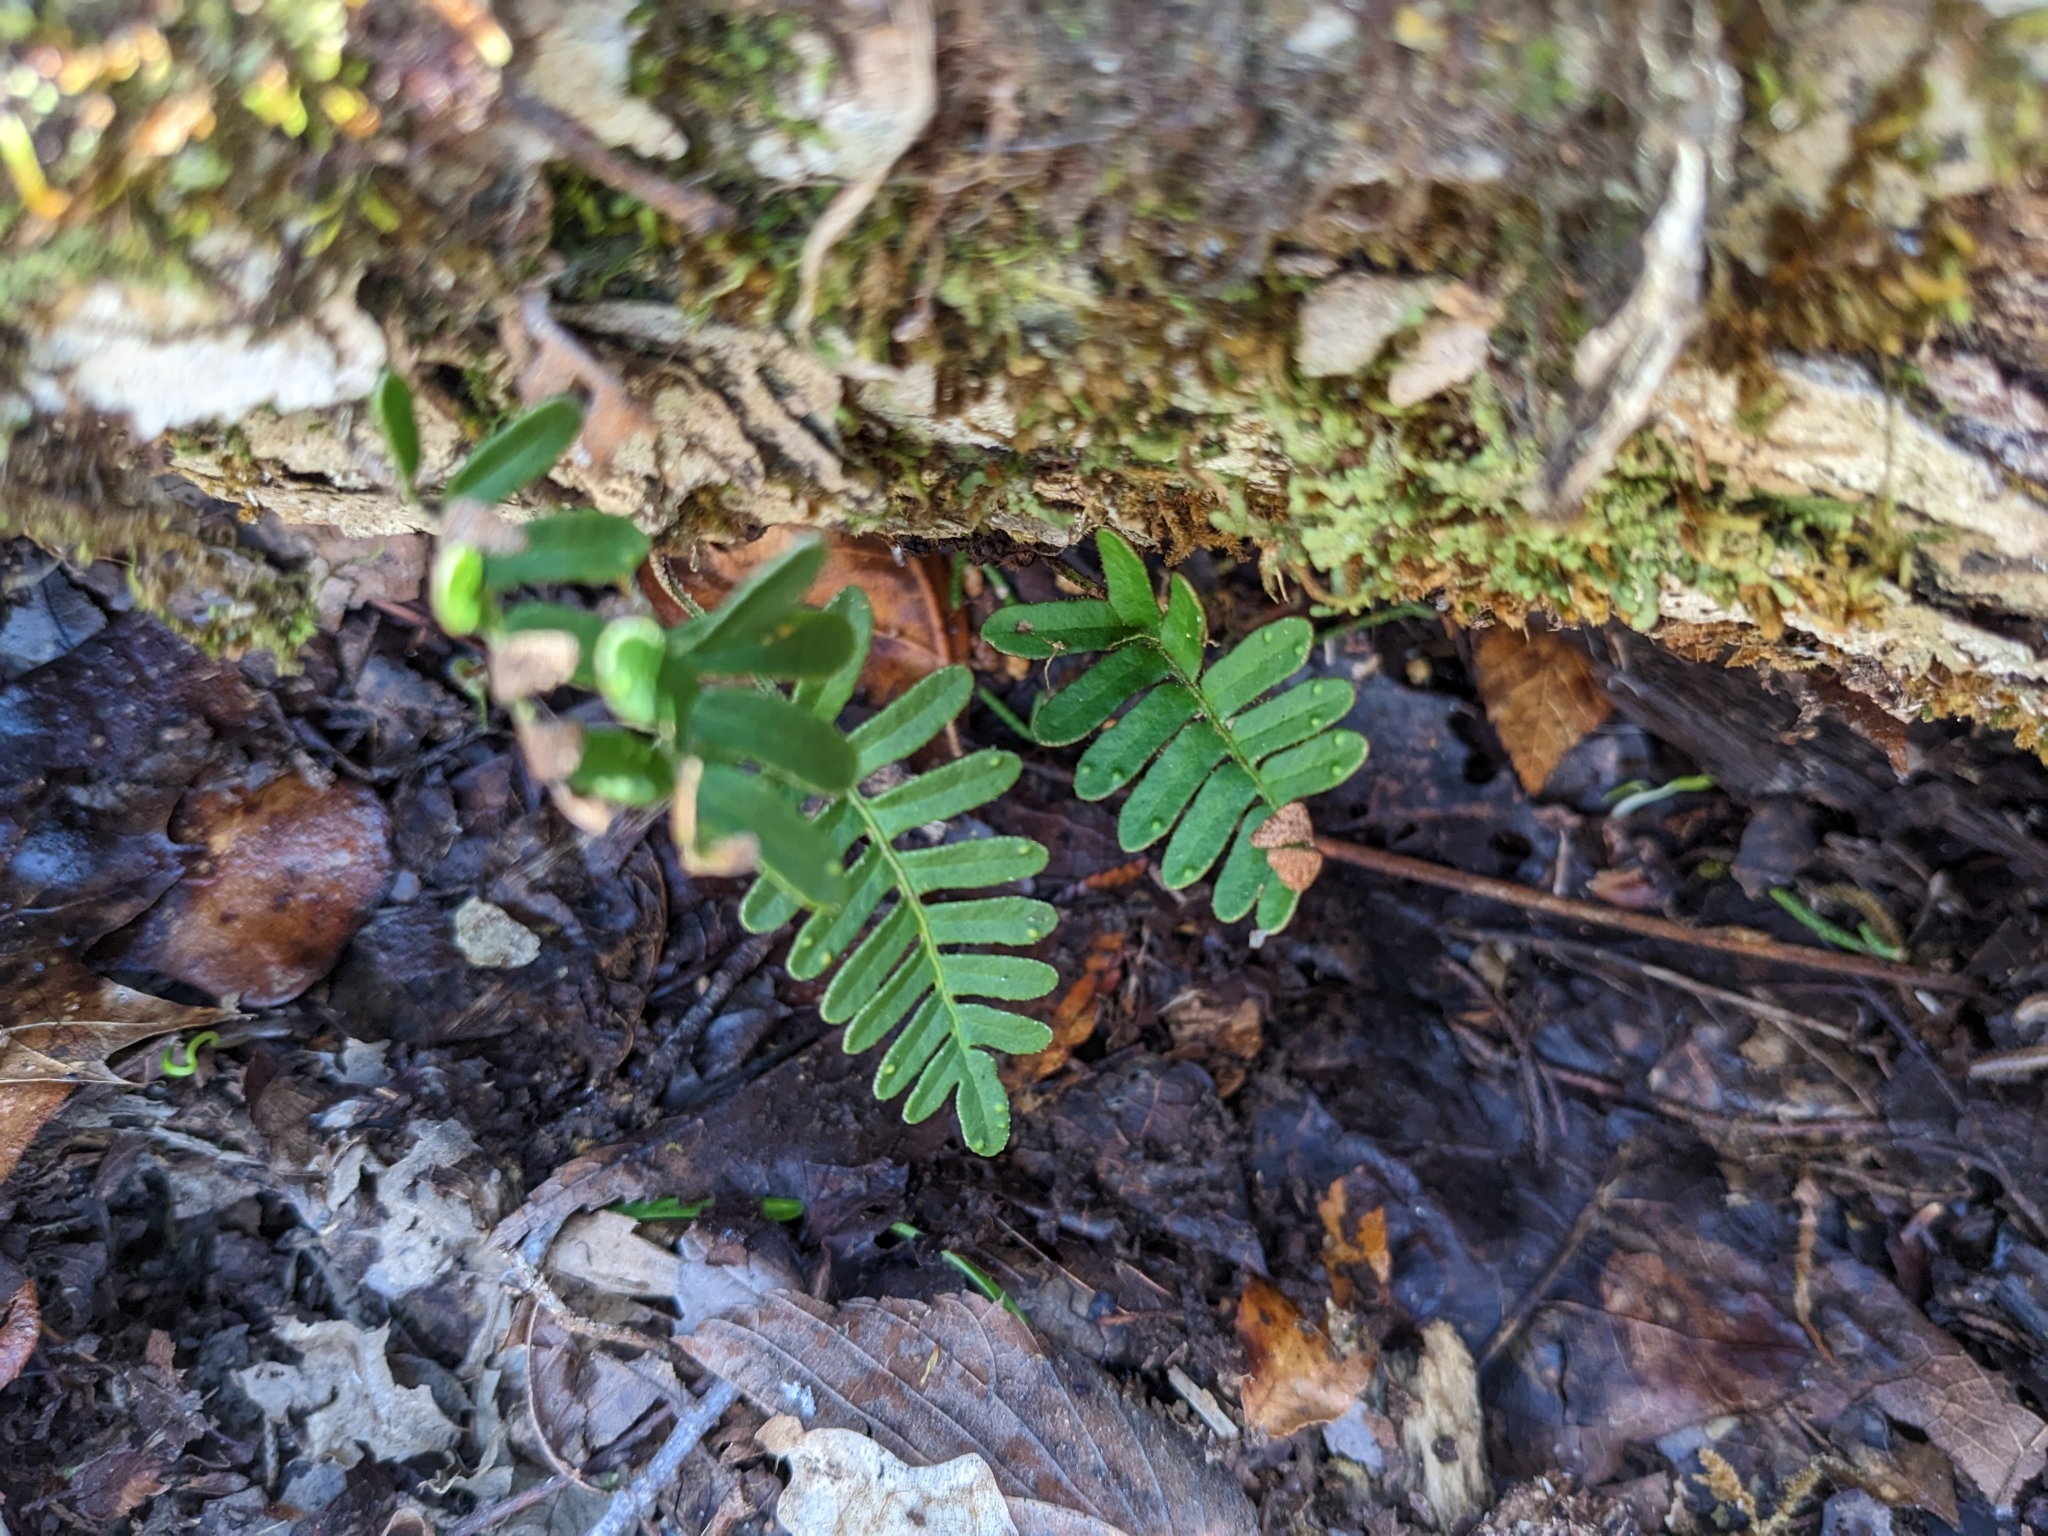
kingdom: Plantae
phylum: Tracheophyta
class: Polypodiopsida
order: Polypodiales
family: Polypodiaceae
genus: Pleopeltis
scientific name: Pleopeltis michauxiana
